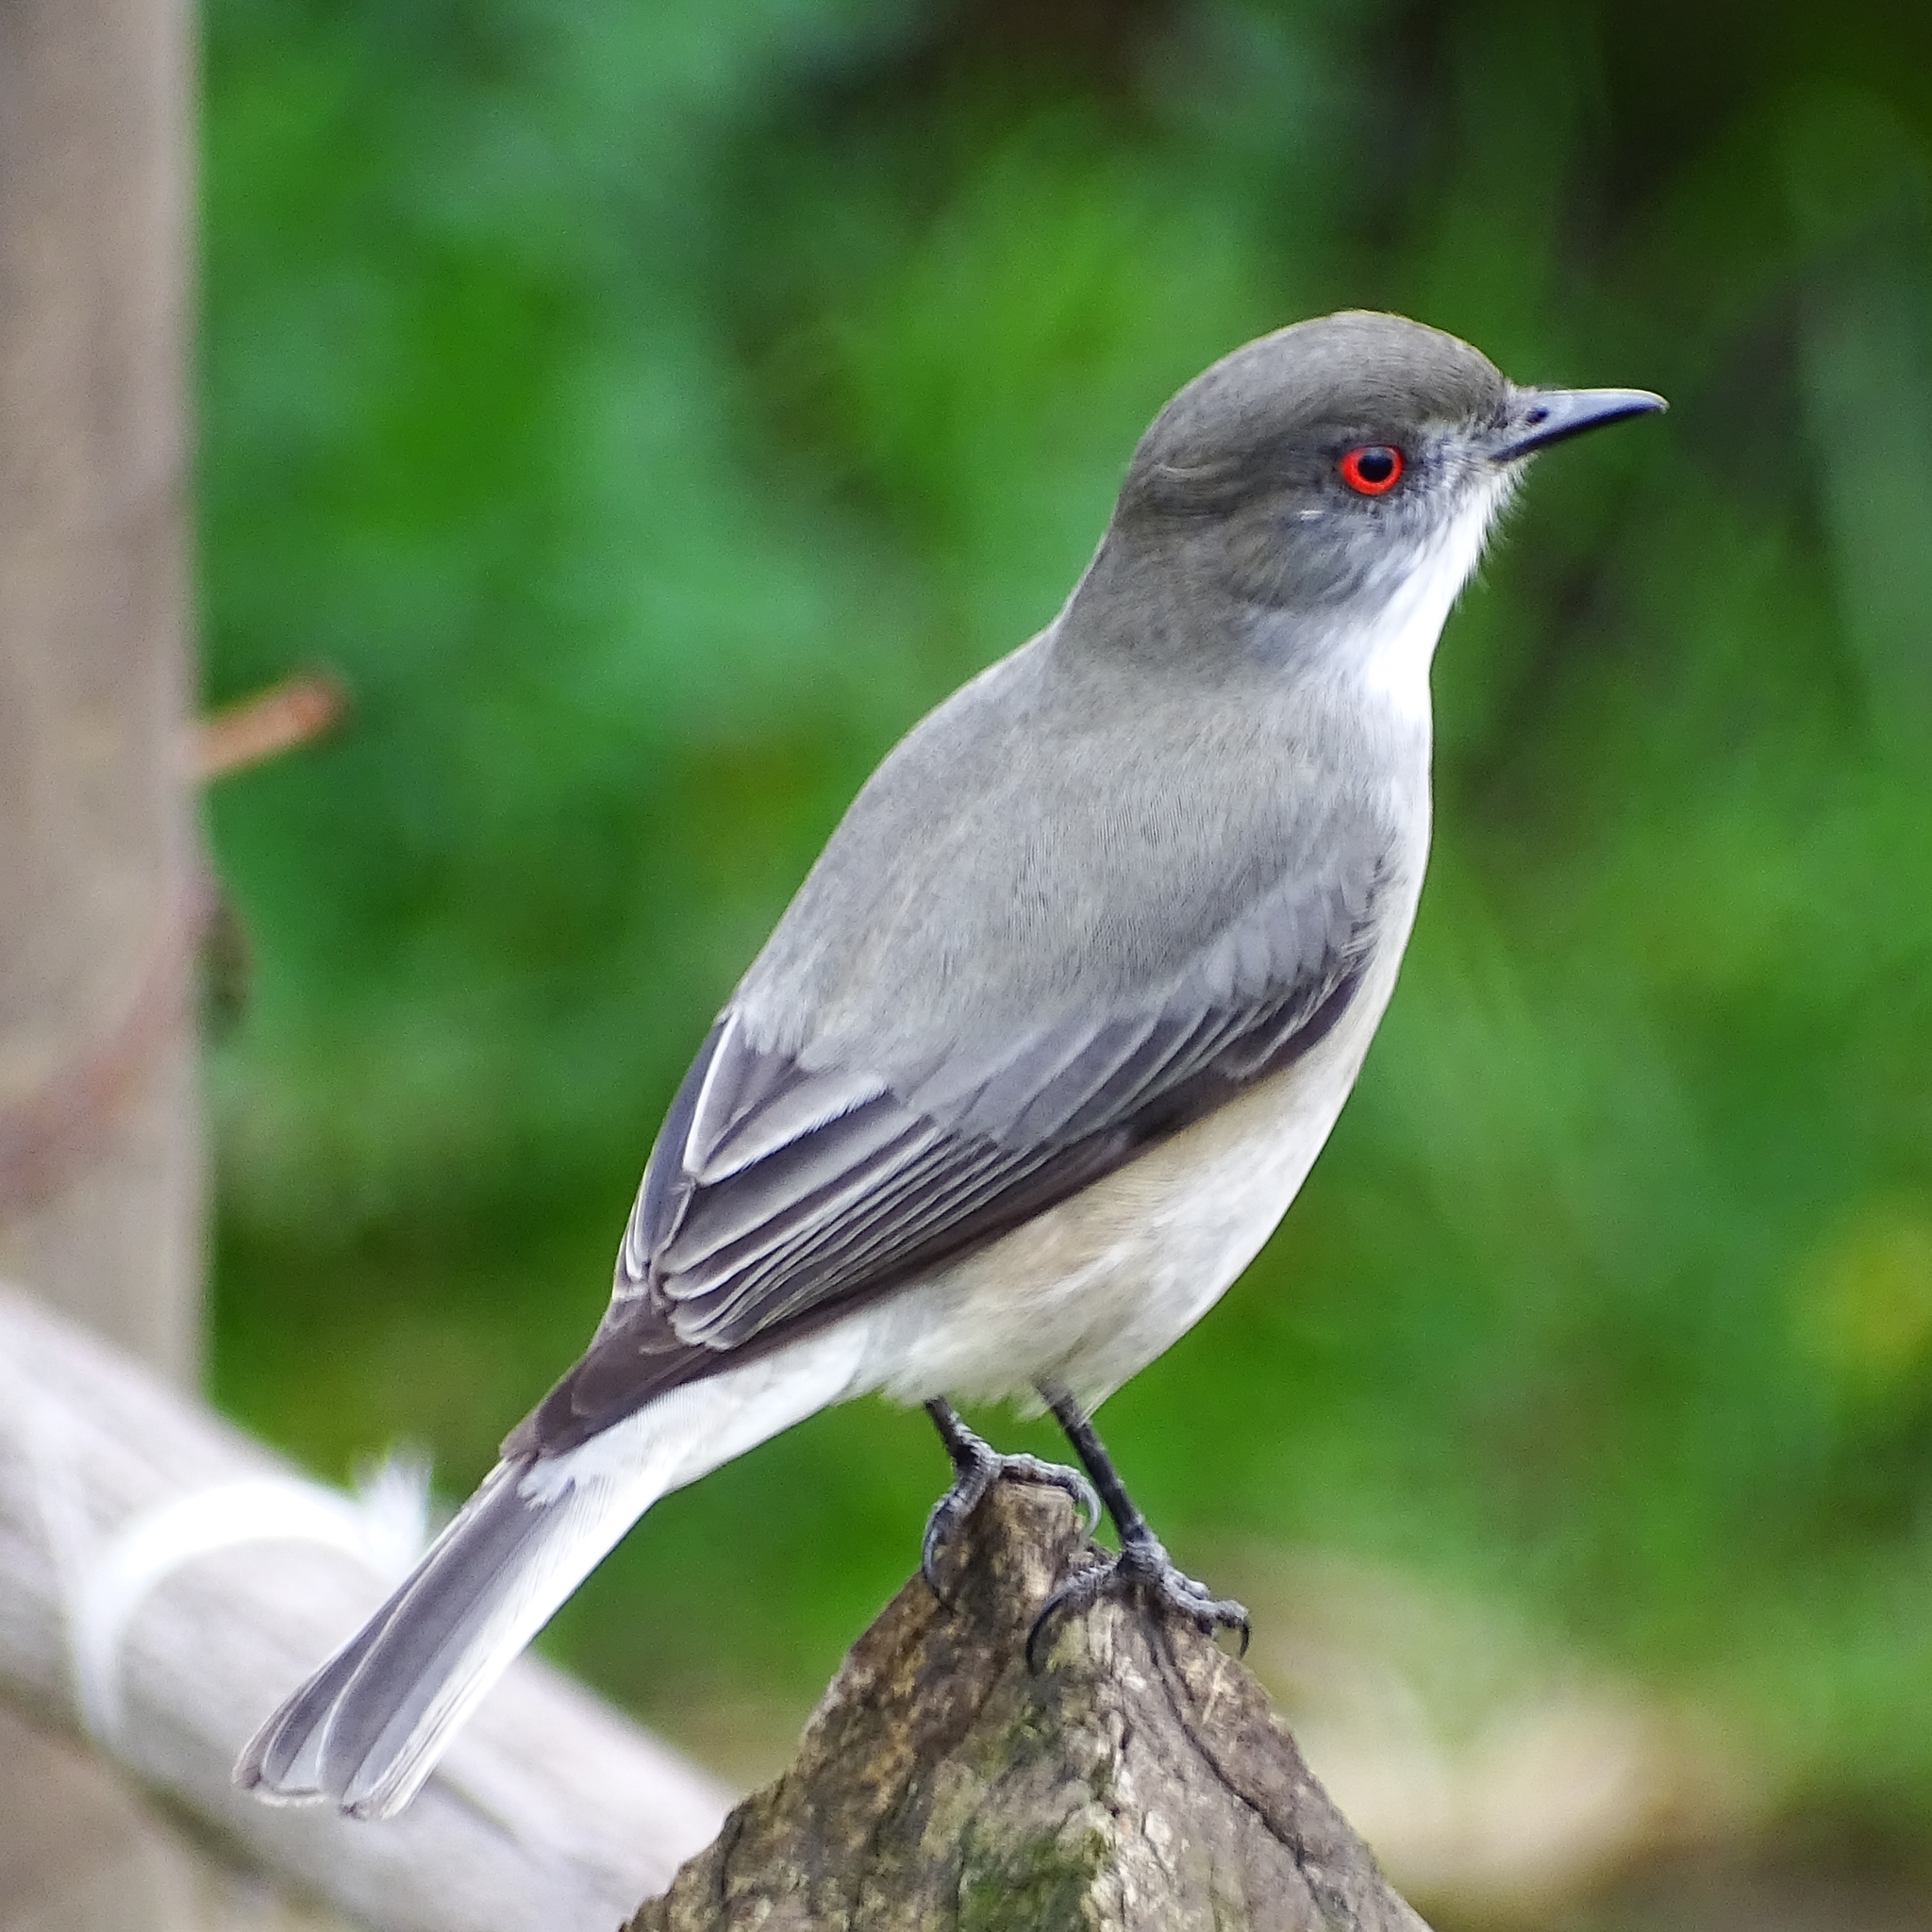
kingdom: Animalia
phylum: Chordata
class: Aves
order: Passeriformes
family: Tyrannidae
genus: Xolmis
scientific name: Xolmis pyrope
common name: Fire-eyed diucon
